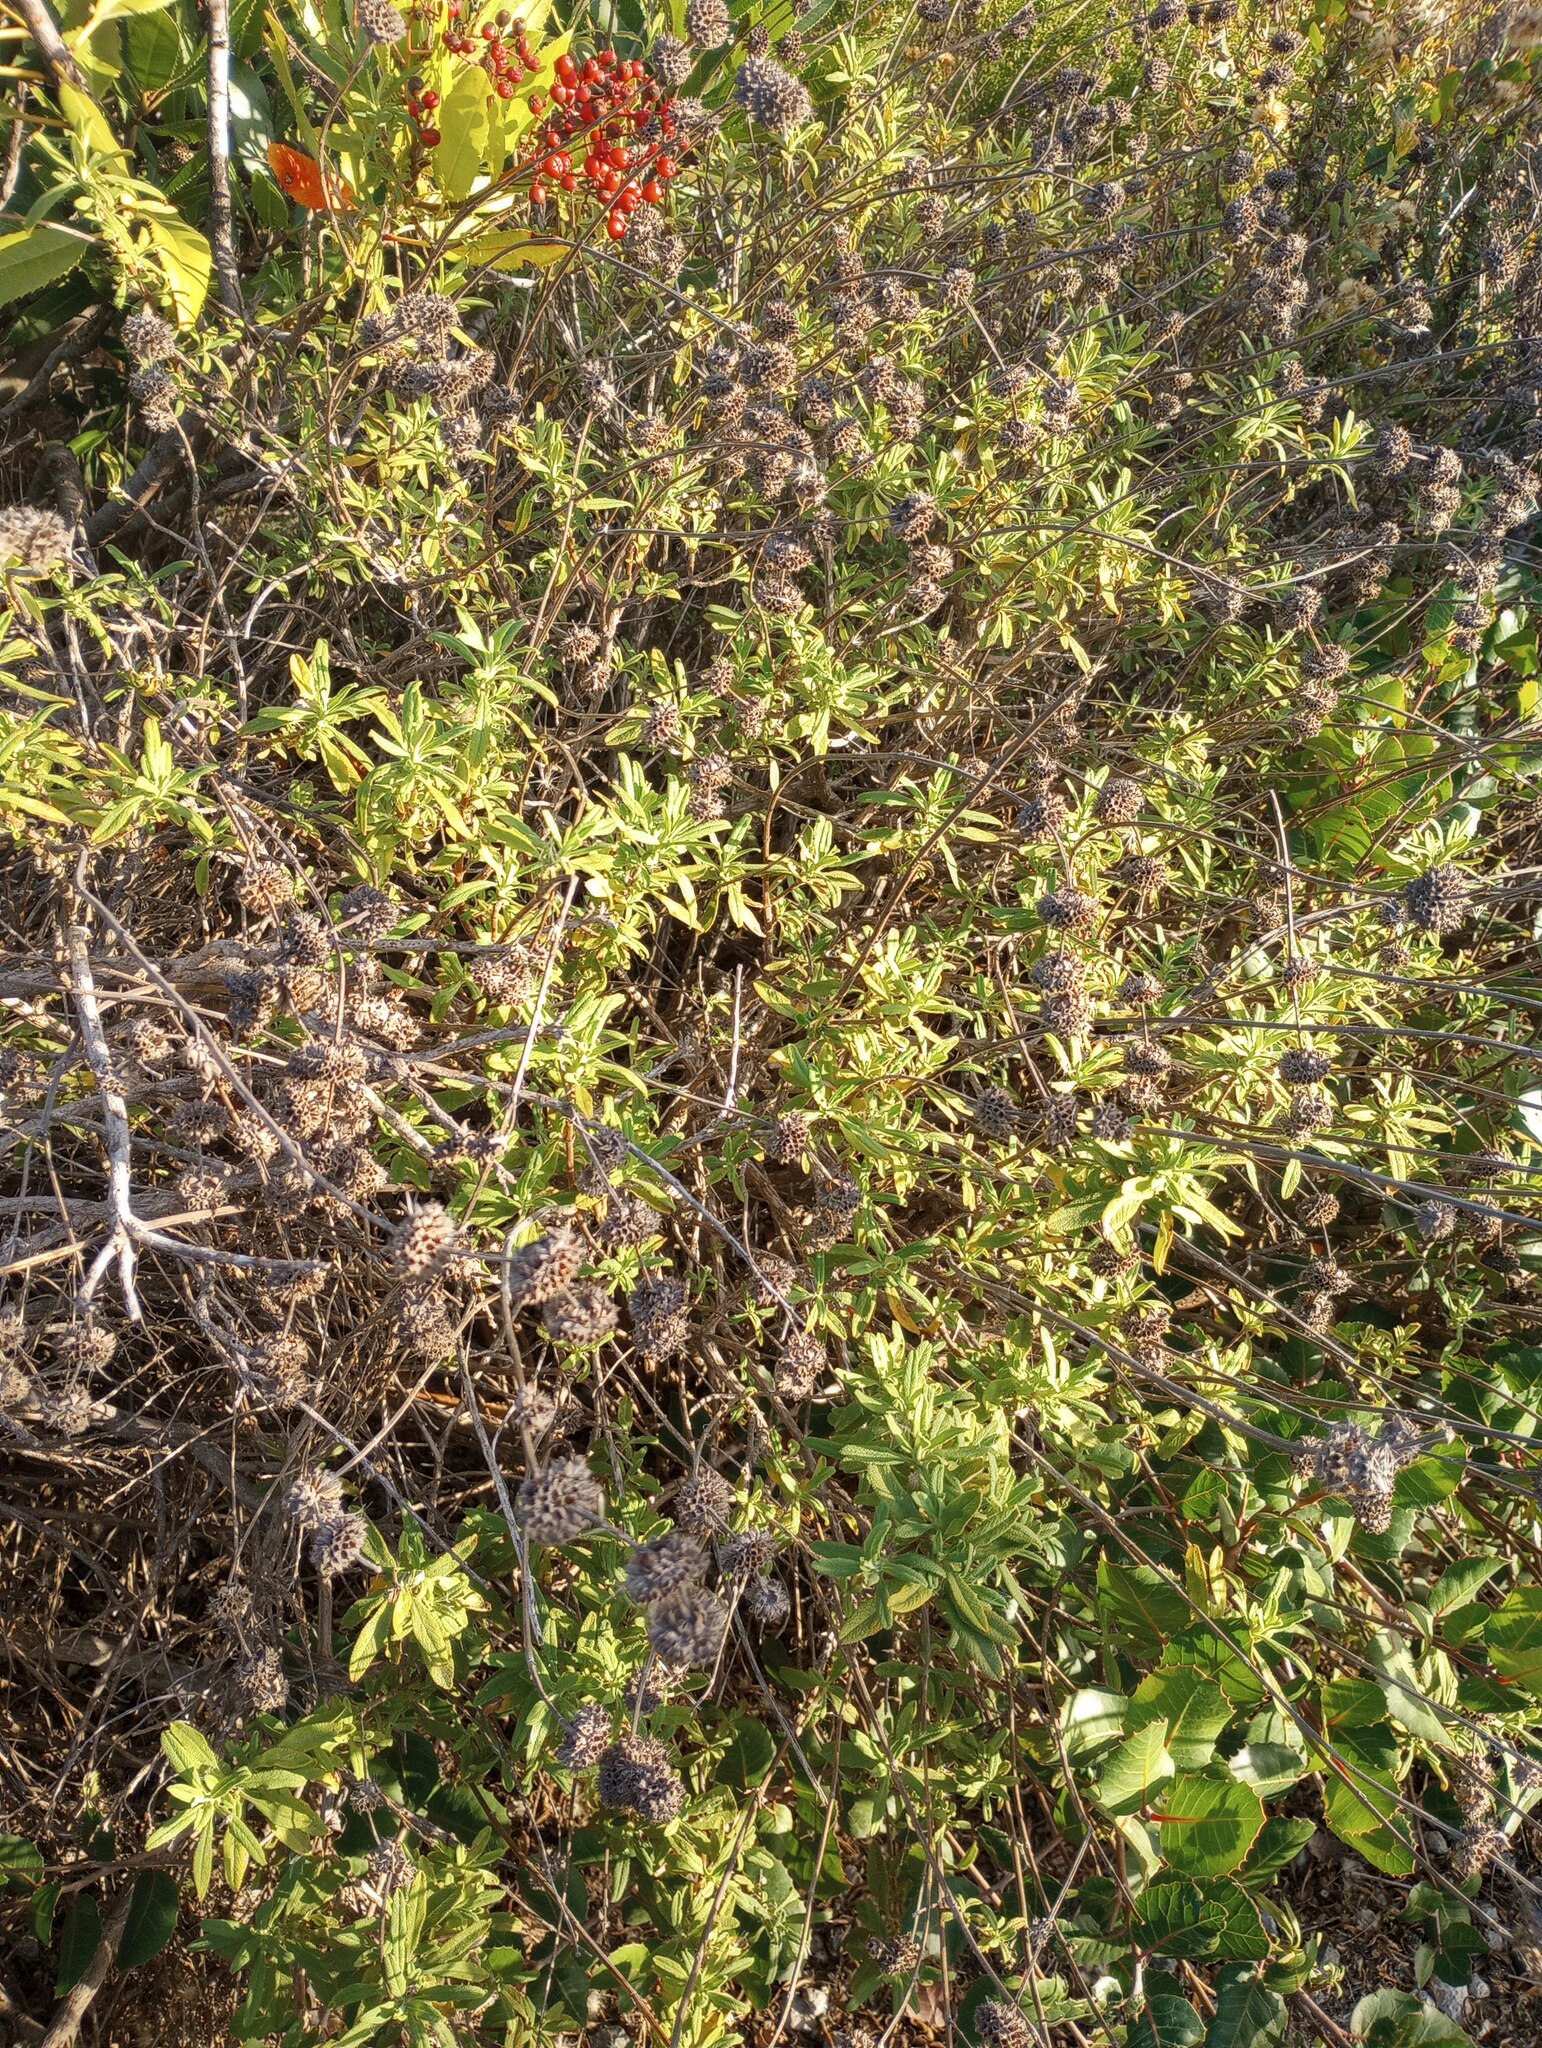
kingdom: Plantae
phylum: Tracheophyta
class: Magnoliopsida
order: Lamiales
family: Lamiaceae
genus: Salvia
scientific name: Salvia mellifera
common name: Black sage
